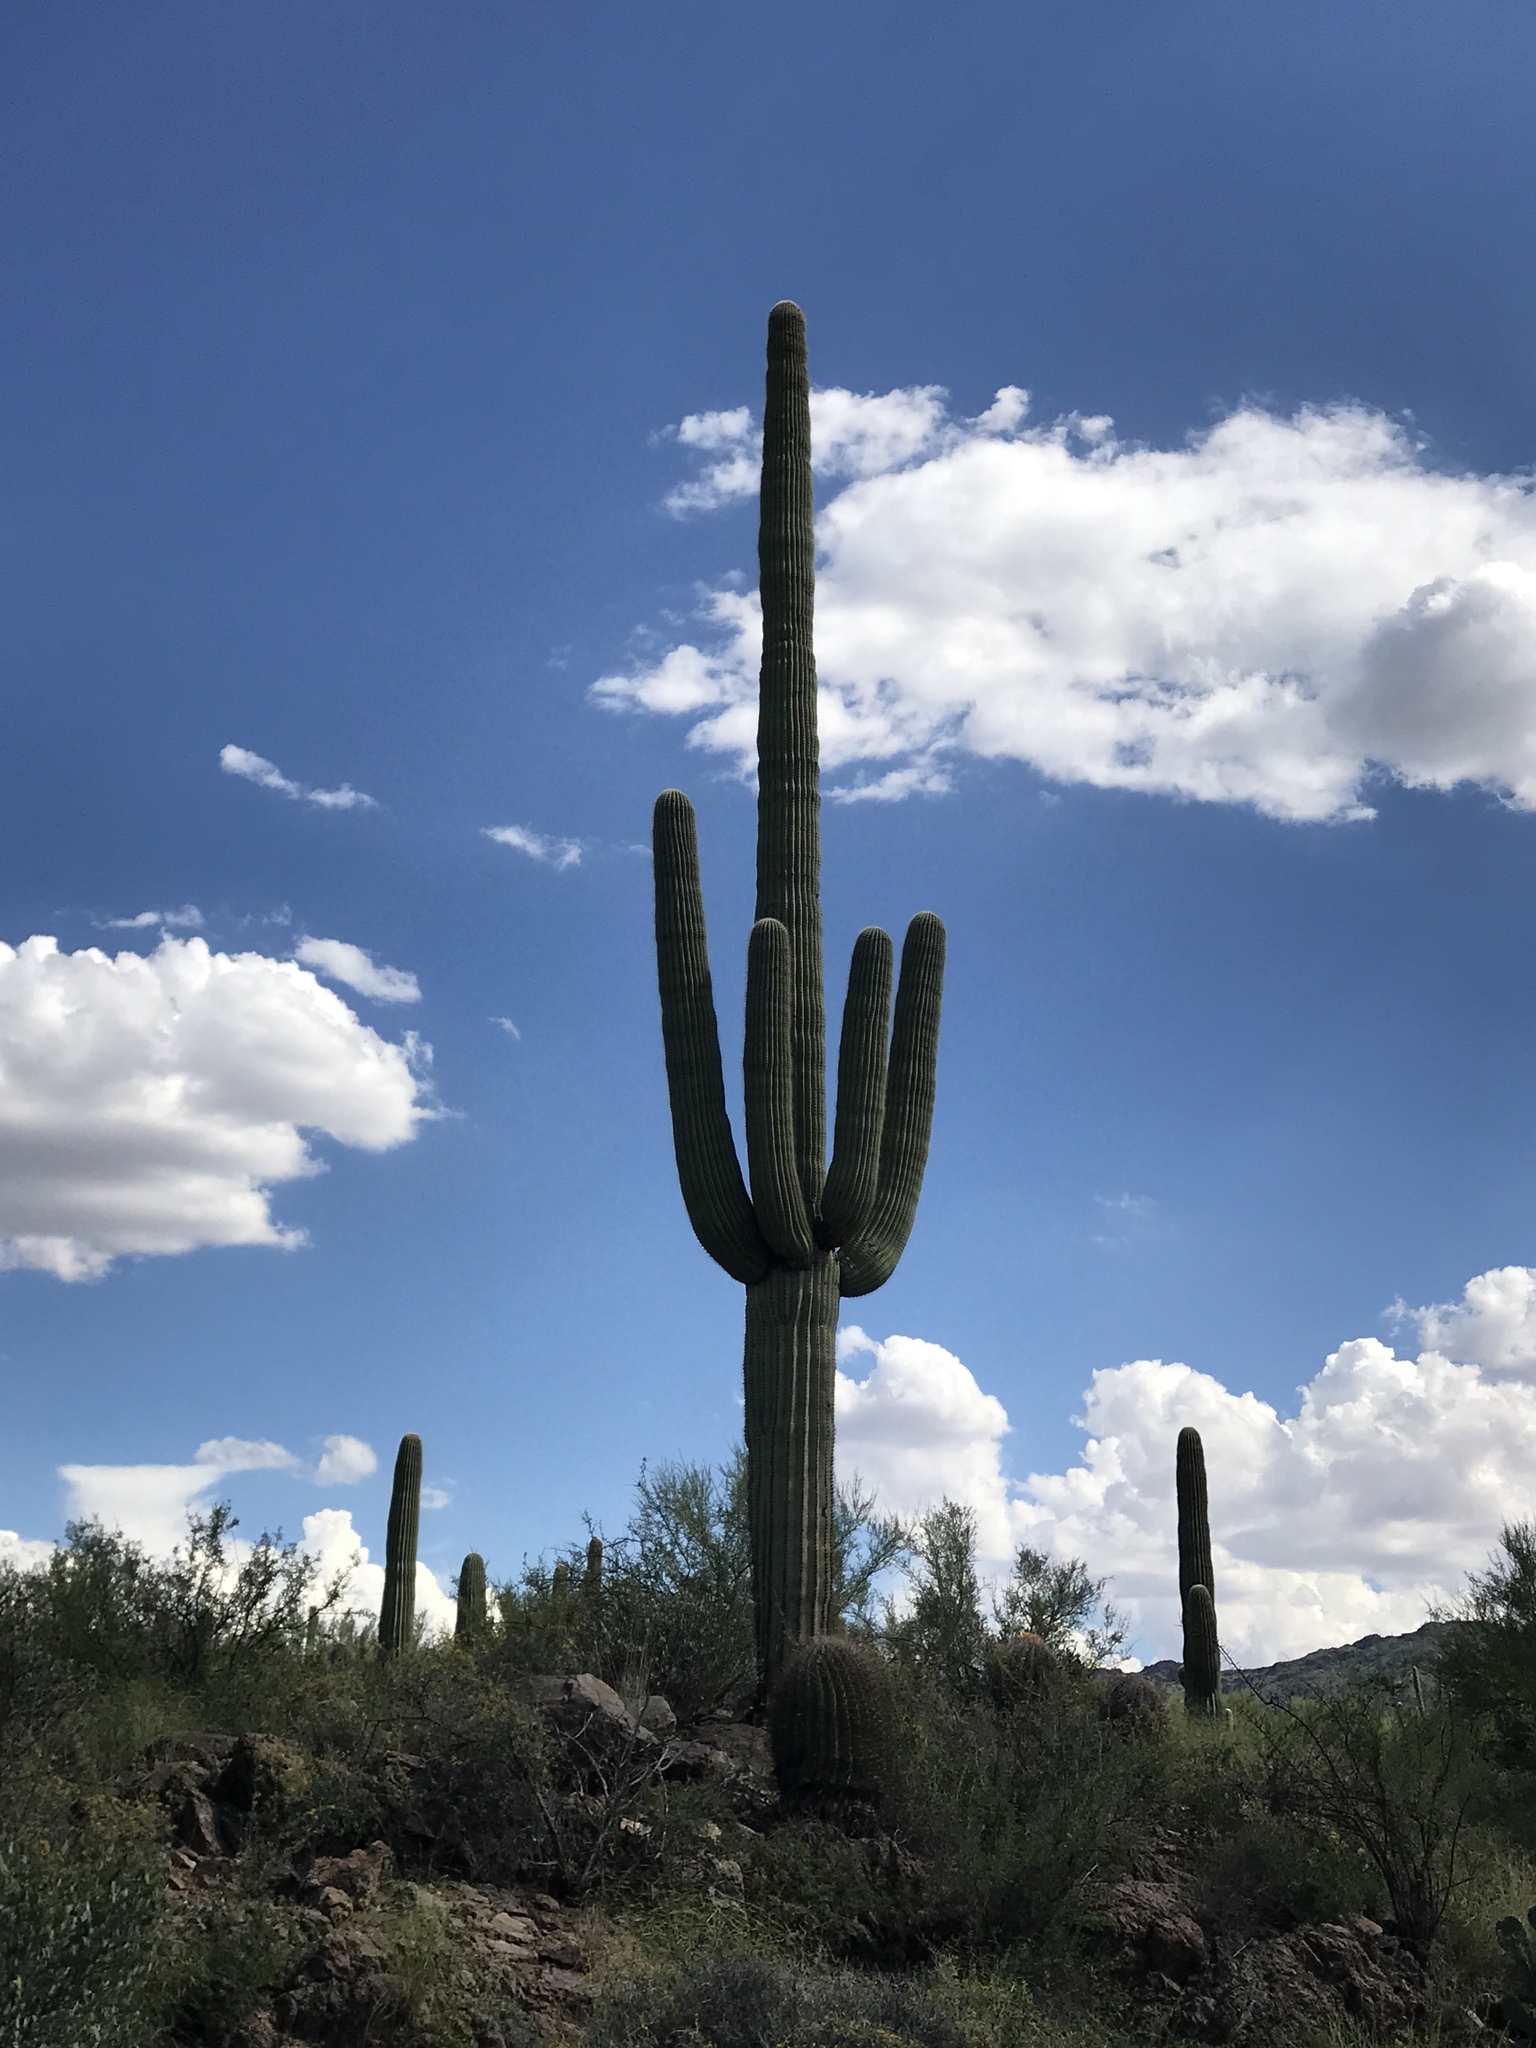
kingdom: Plantae
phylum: Tracheophyta
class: Magnoliopsida
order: Caryophyllales
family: Cactaceae
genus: Carnegiea
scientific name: Carnegiea gigantea
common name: Saguaro
